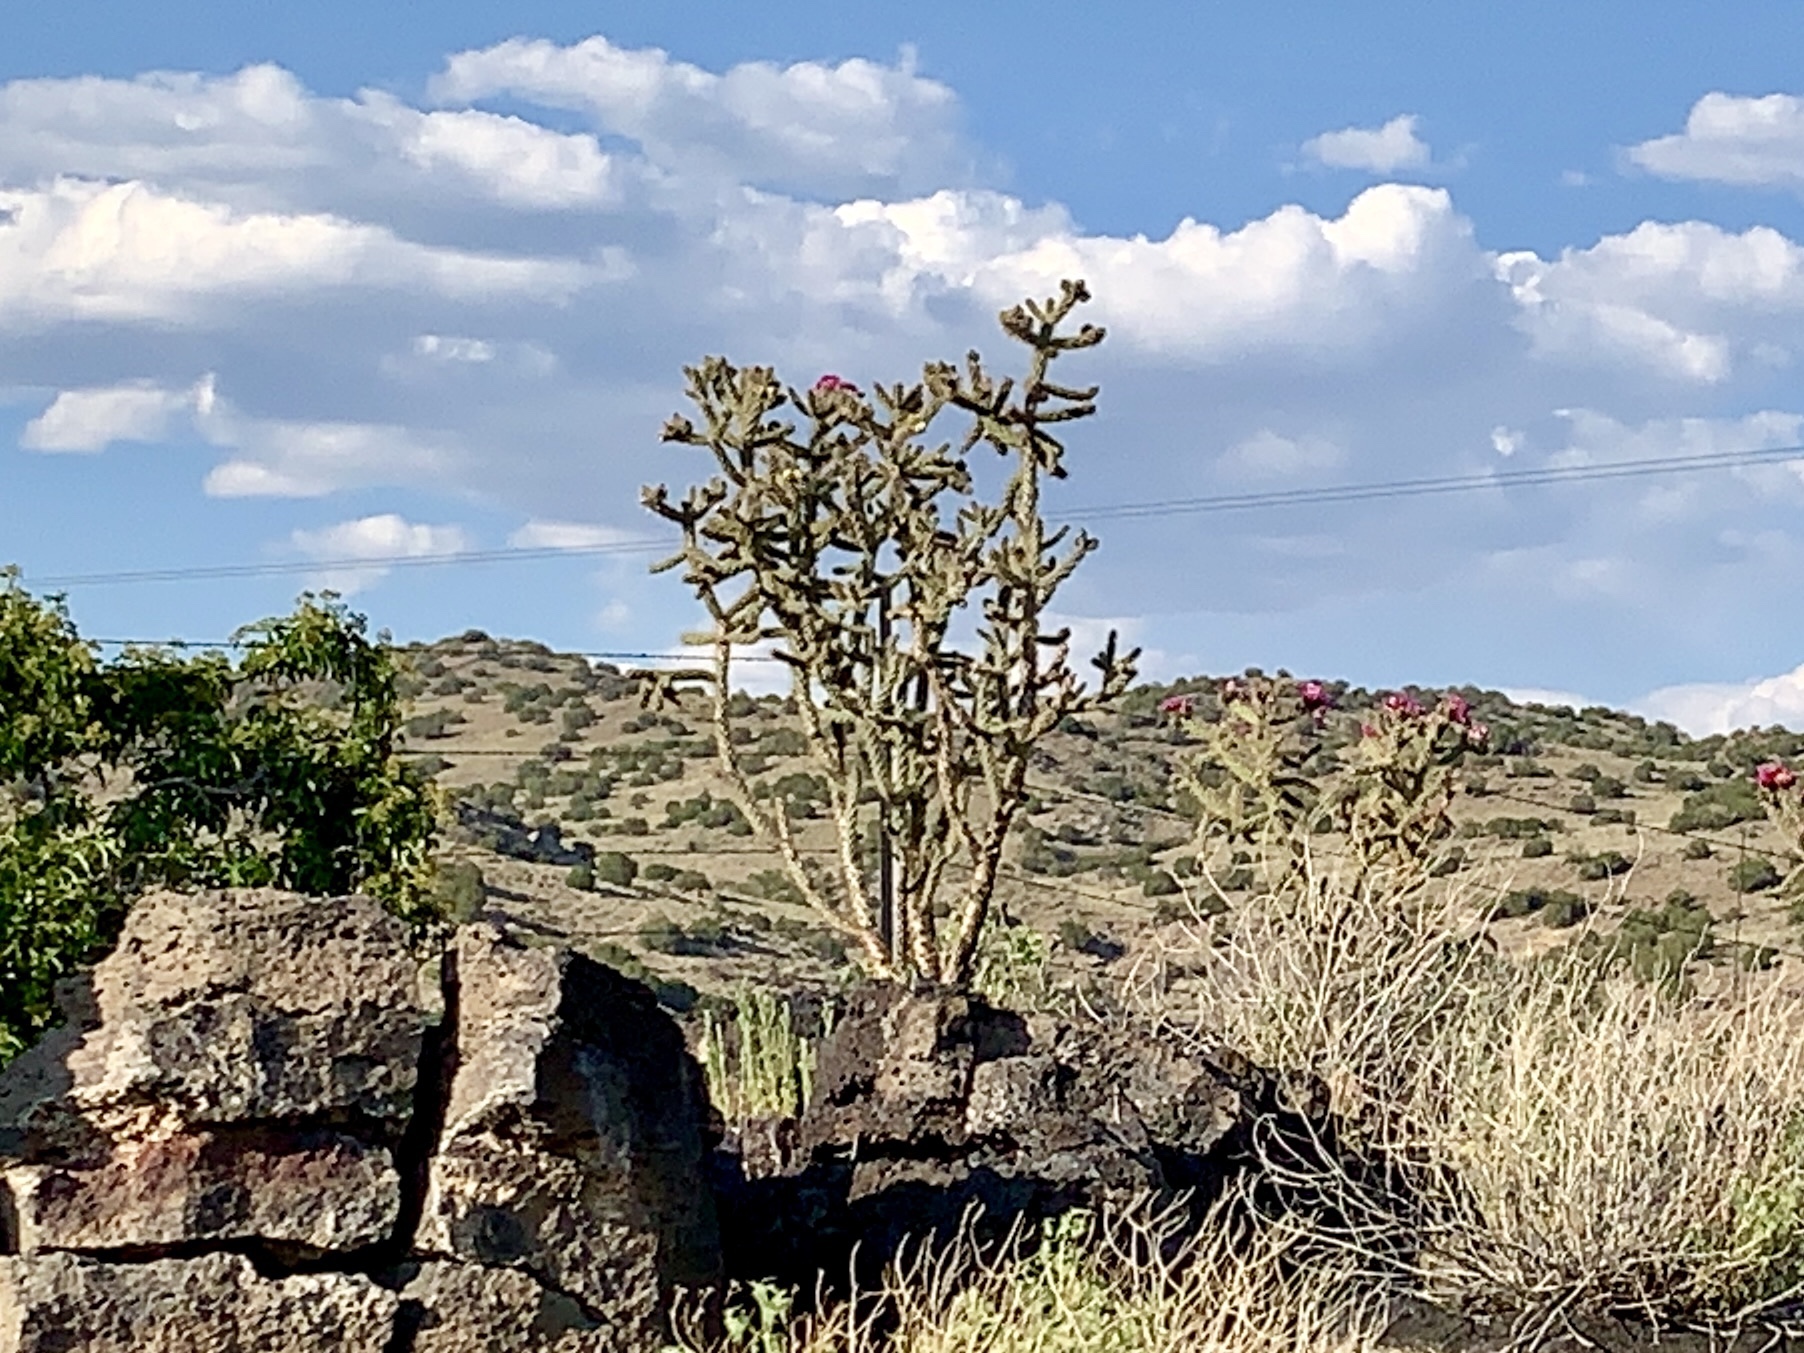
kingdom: Plantae
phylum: Tracheophyta
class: Magnoliopsida
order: Caryophyllales
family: Cactaceae
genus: Cylindropuntia
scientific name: Cylindropuntia imbricata
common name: Candelabrum cactus
